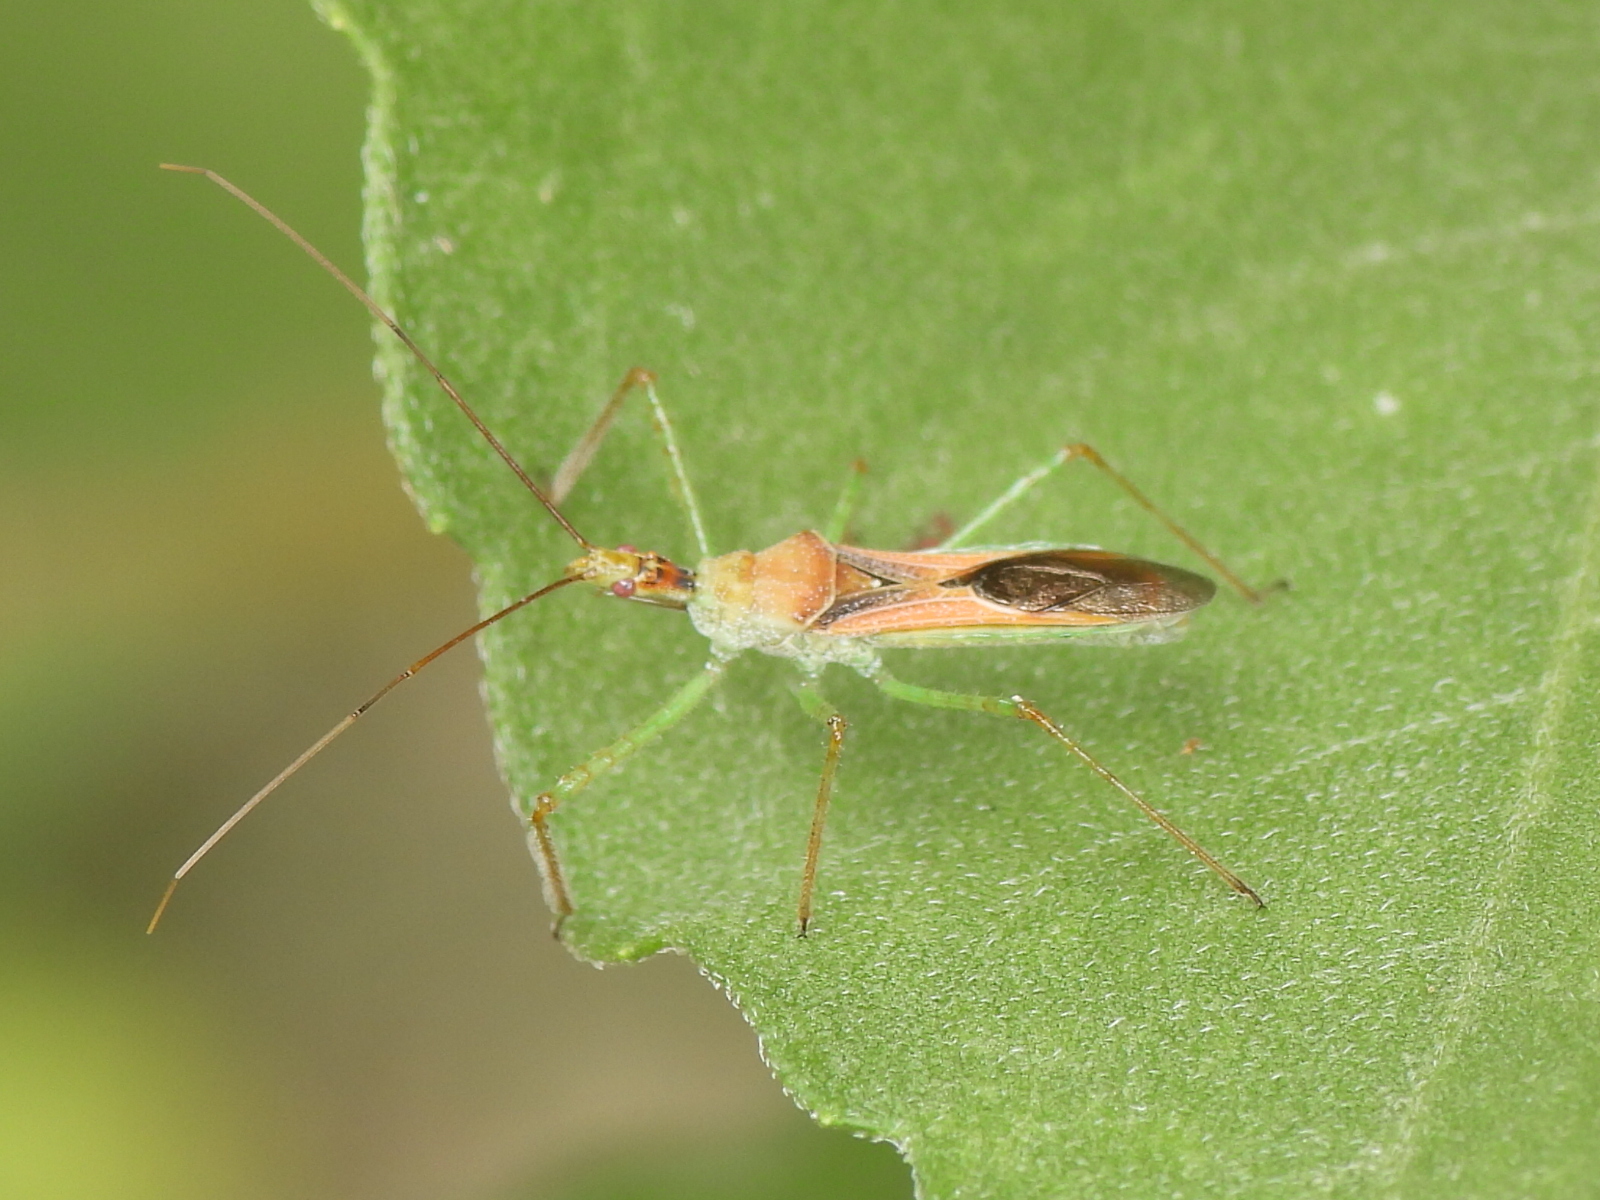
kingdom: Animalia
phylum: Arthropoda
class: Insecta
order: Hemiptera
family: Reduviidae
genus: Zelus
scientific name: Zelus renardii
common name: Assassin bug
